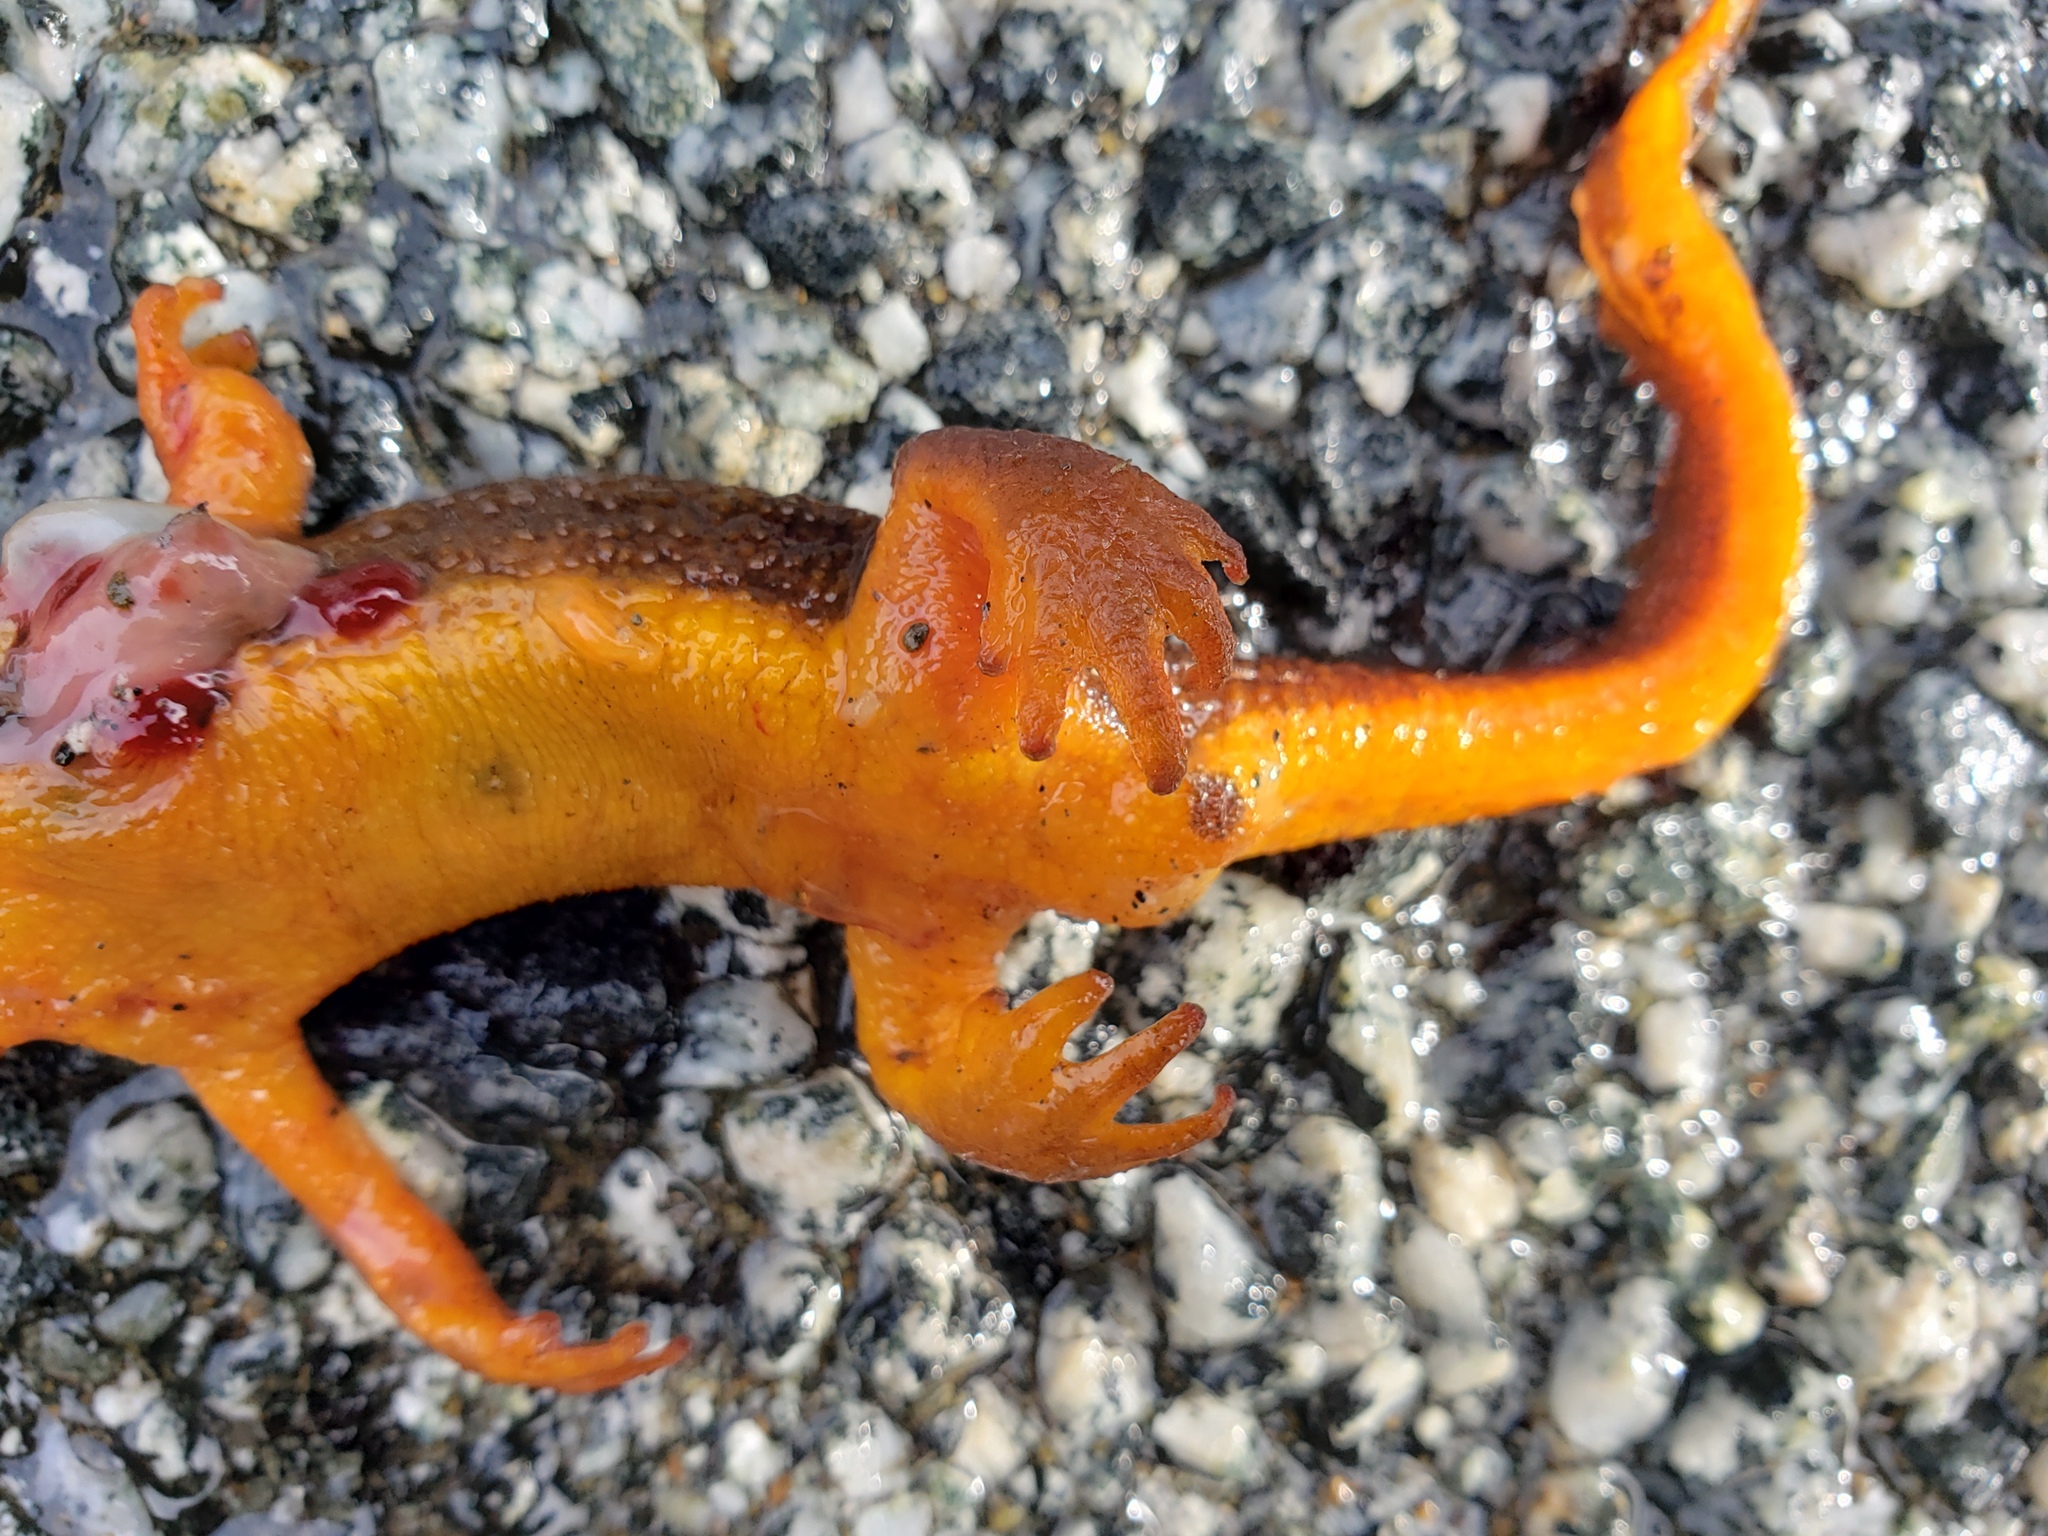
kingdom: Animalia
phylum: Chordata
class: Amphibia
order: Caudata
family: Salamandridae
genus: Taricha
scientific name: Taricha torosa
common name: California newt
